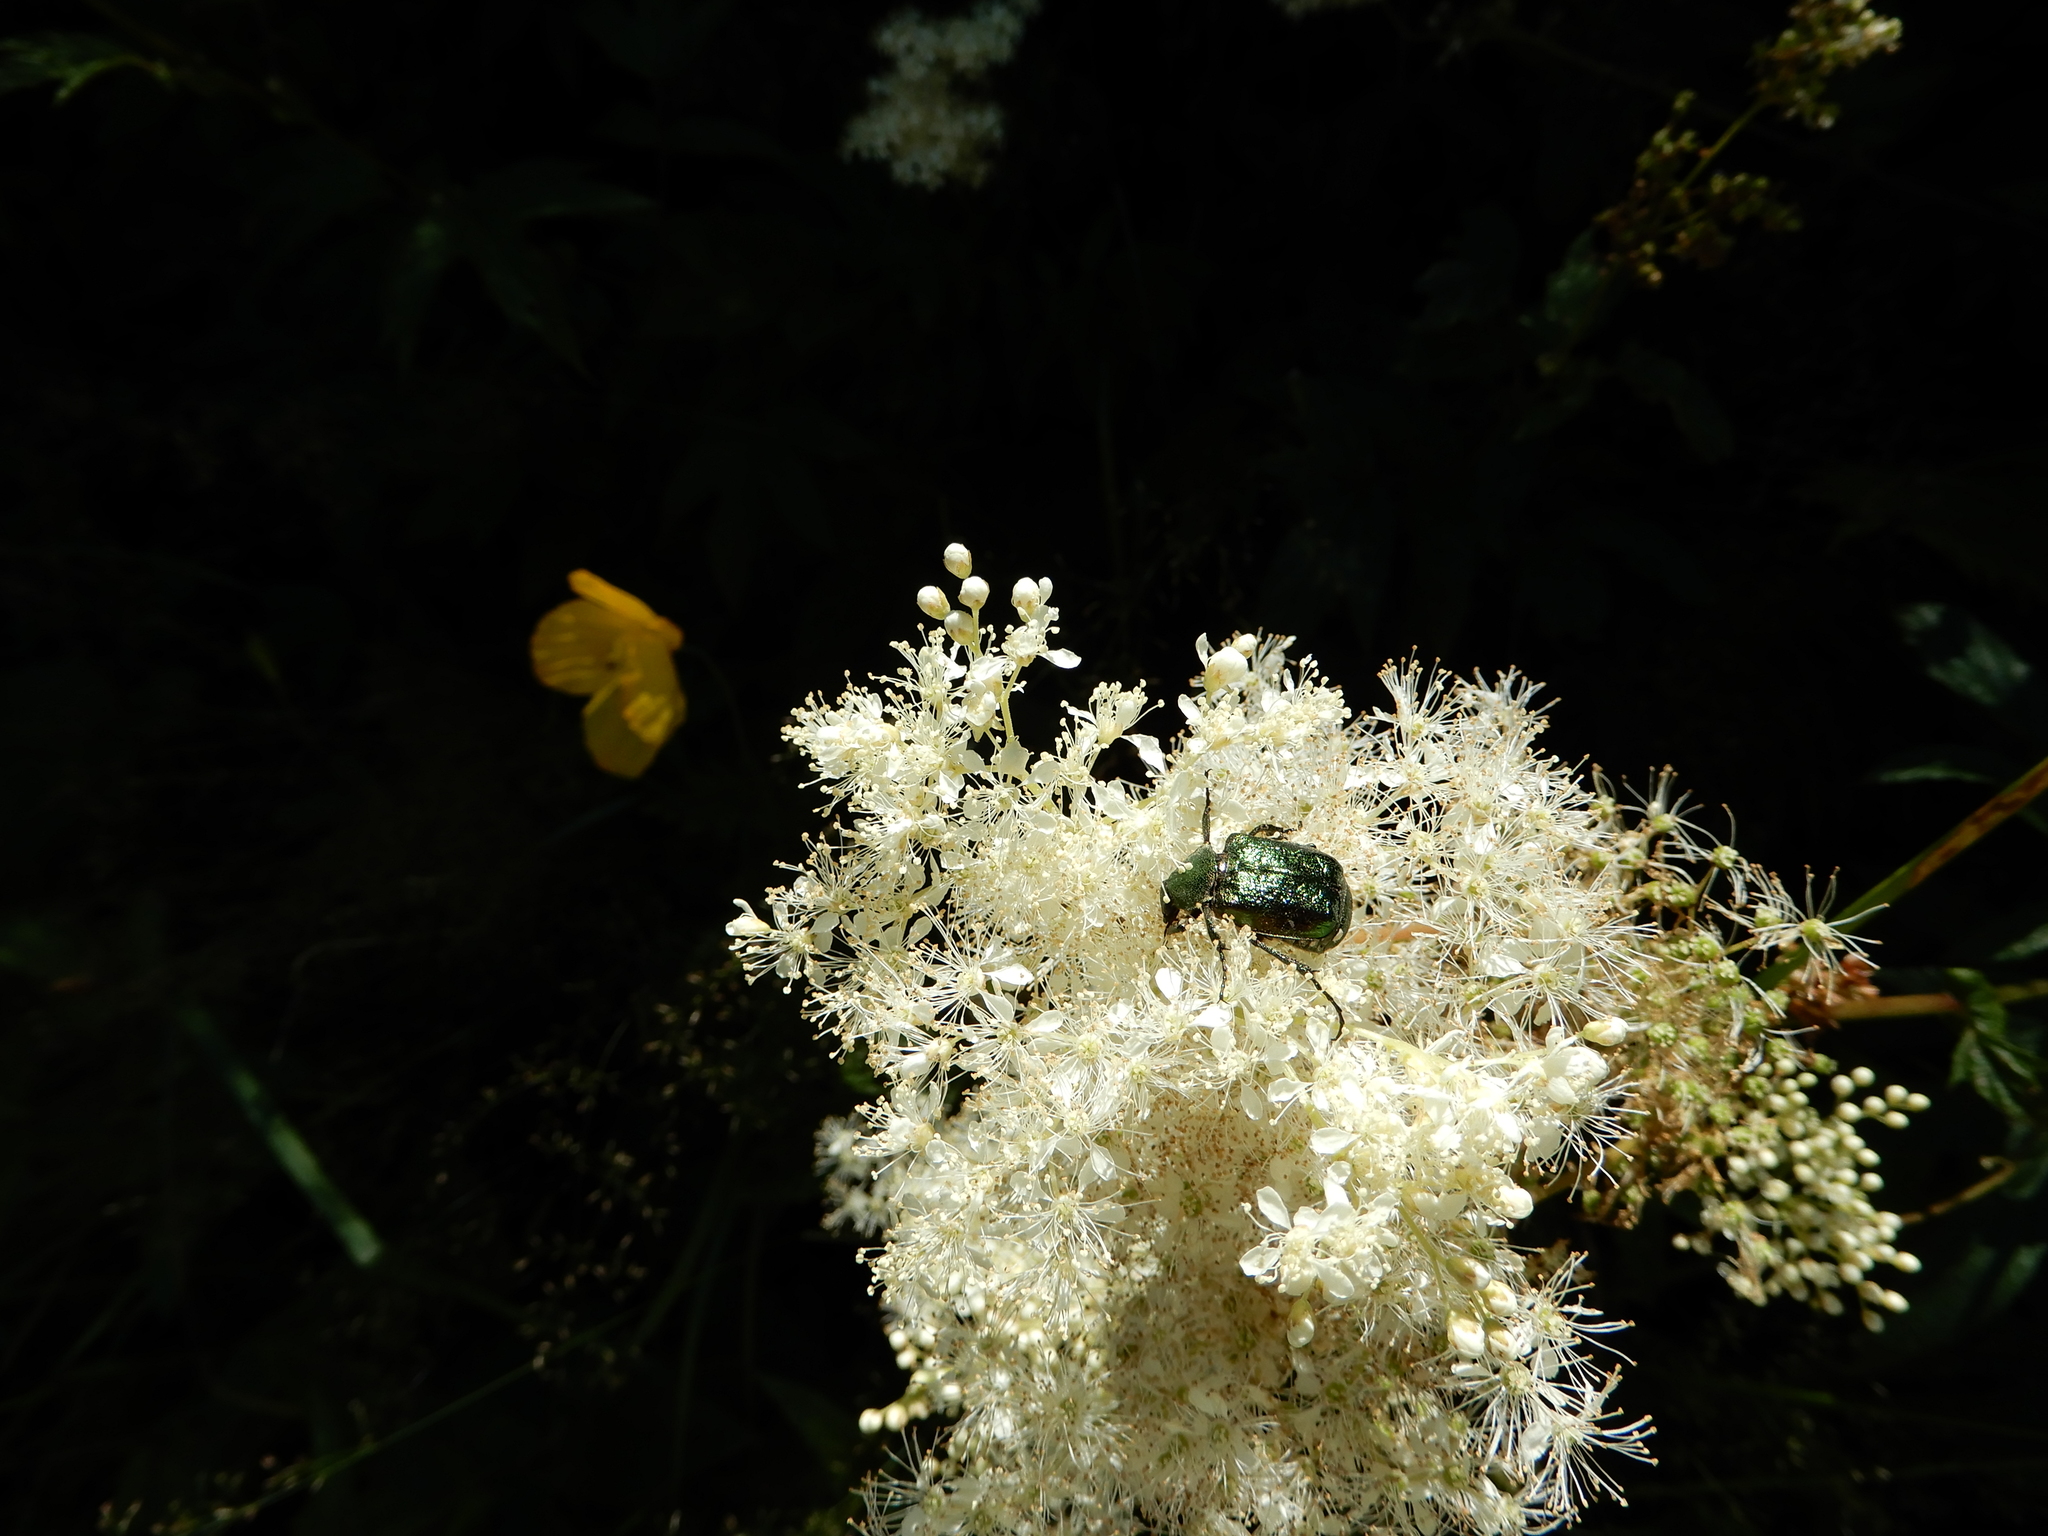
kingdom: Plantae
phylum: Tracheophyta
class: Magnoliopsida
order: Rosales
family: Rosaceae
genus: Filipendula
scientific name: Filipendula ulmaria
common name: Meadowsweet
